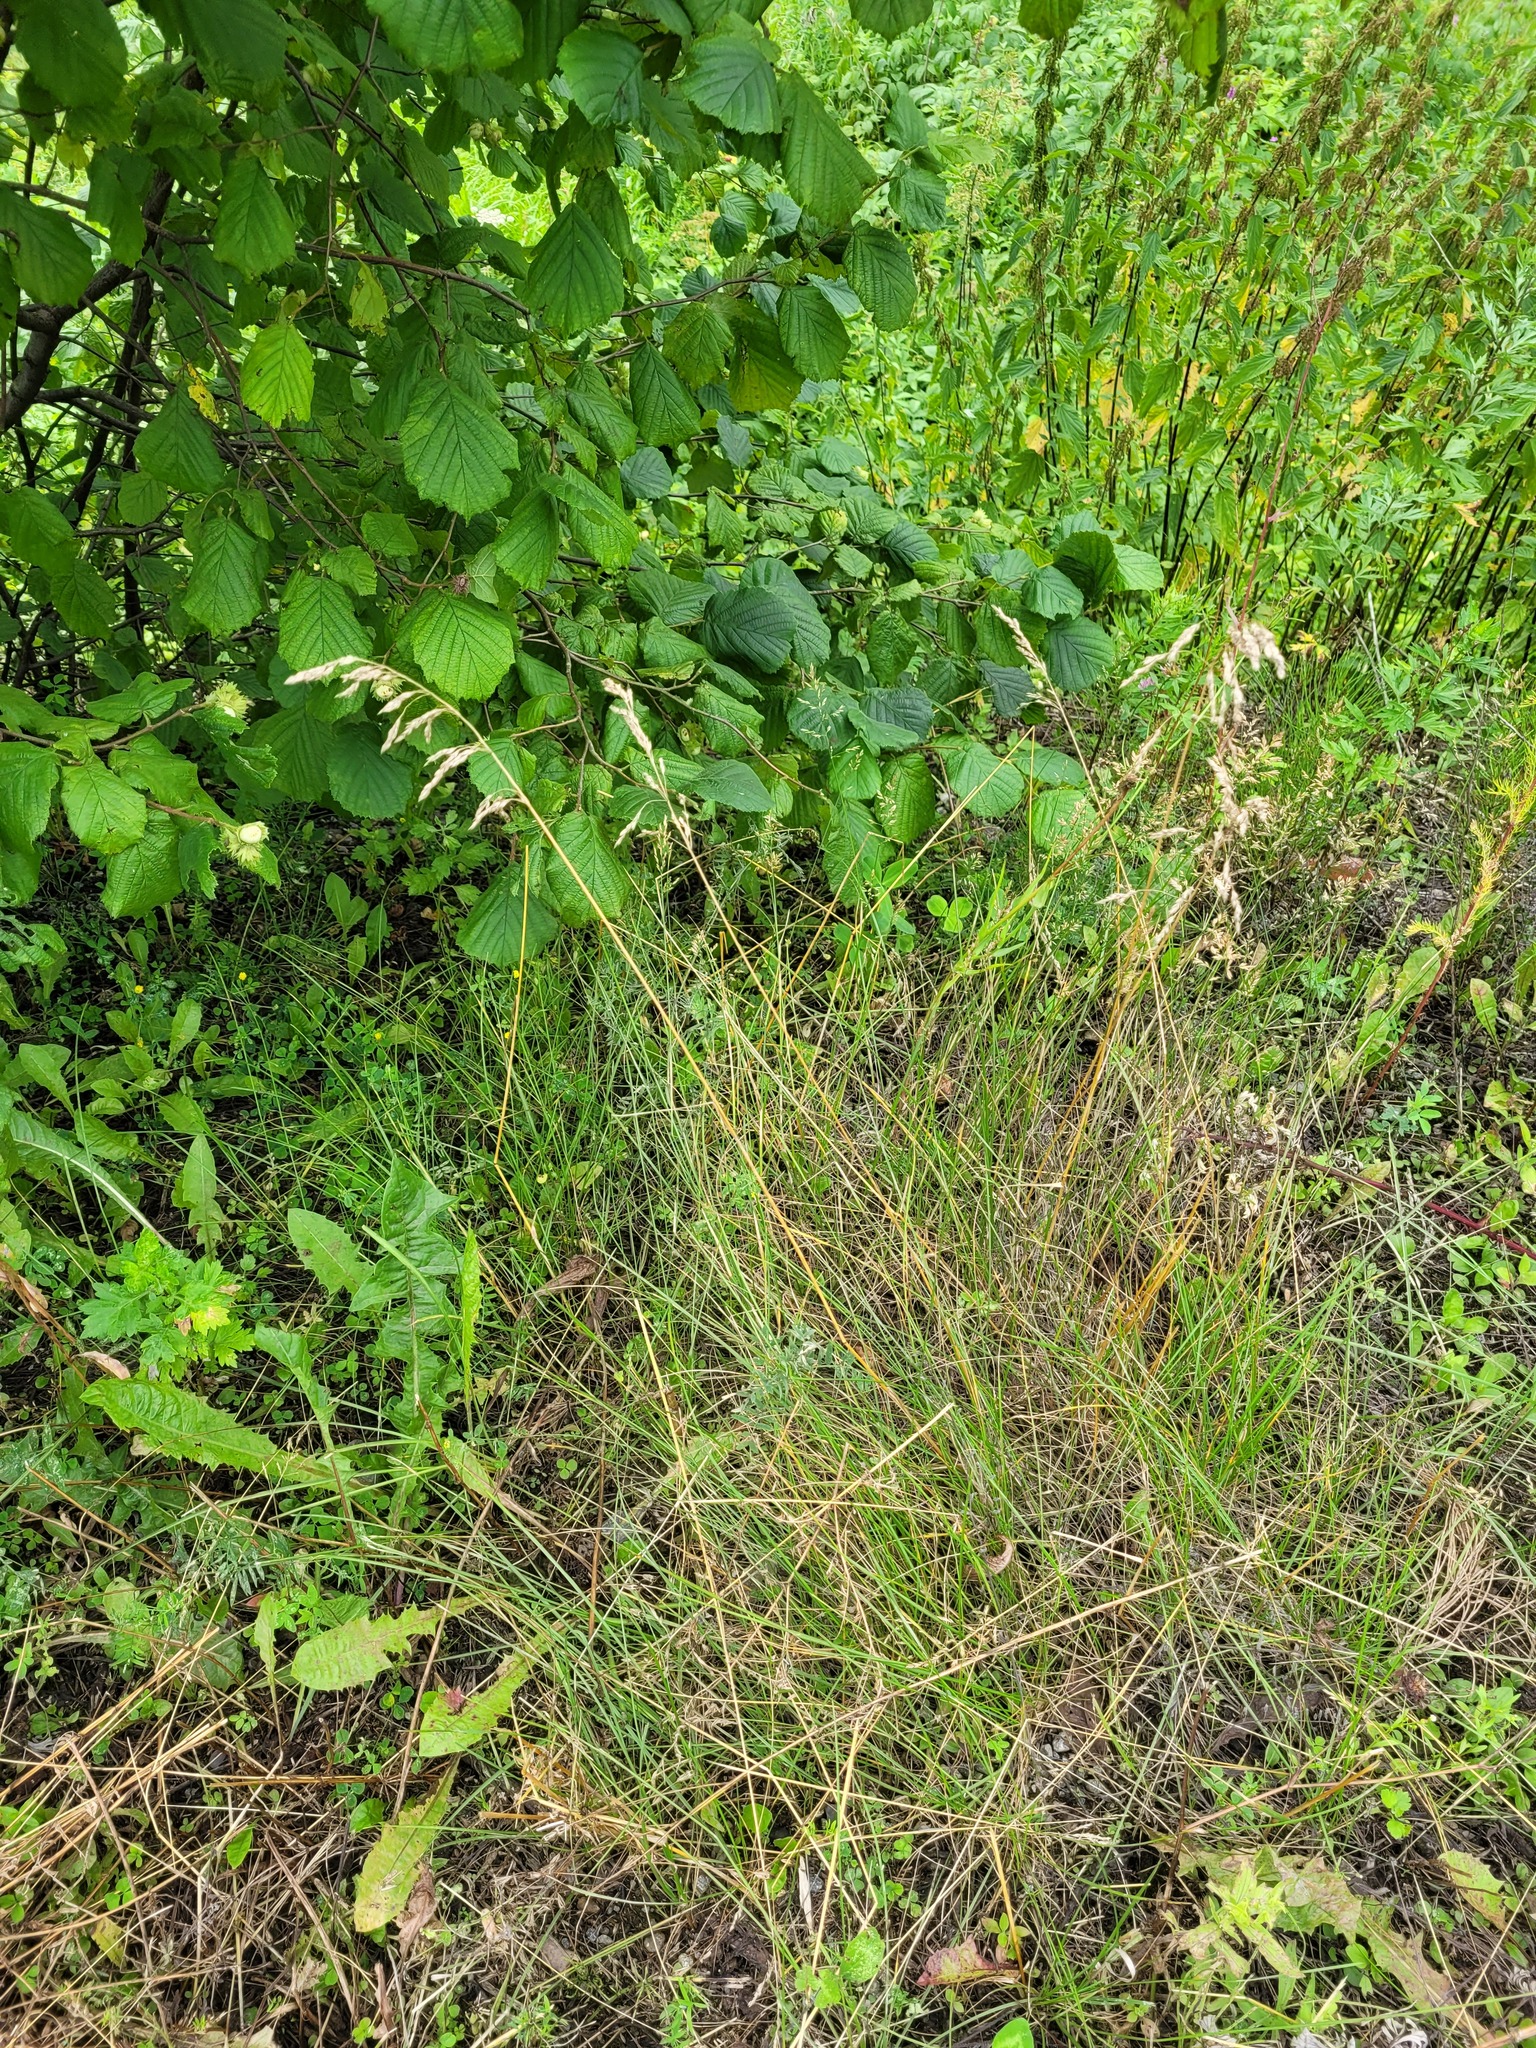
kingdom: Plantae
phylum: Tracheophyta
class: Liliopsida
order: Poales
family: Poaceae
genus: Poa
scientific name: Poa angustifolia
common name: Narrow-leaved meadow-grass
